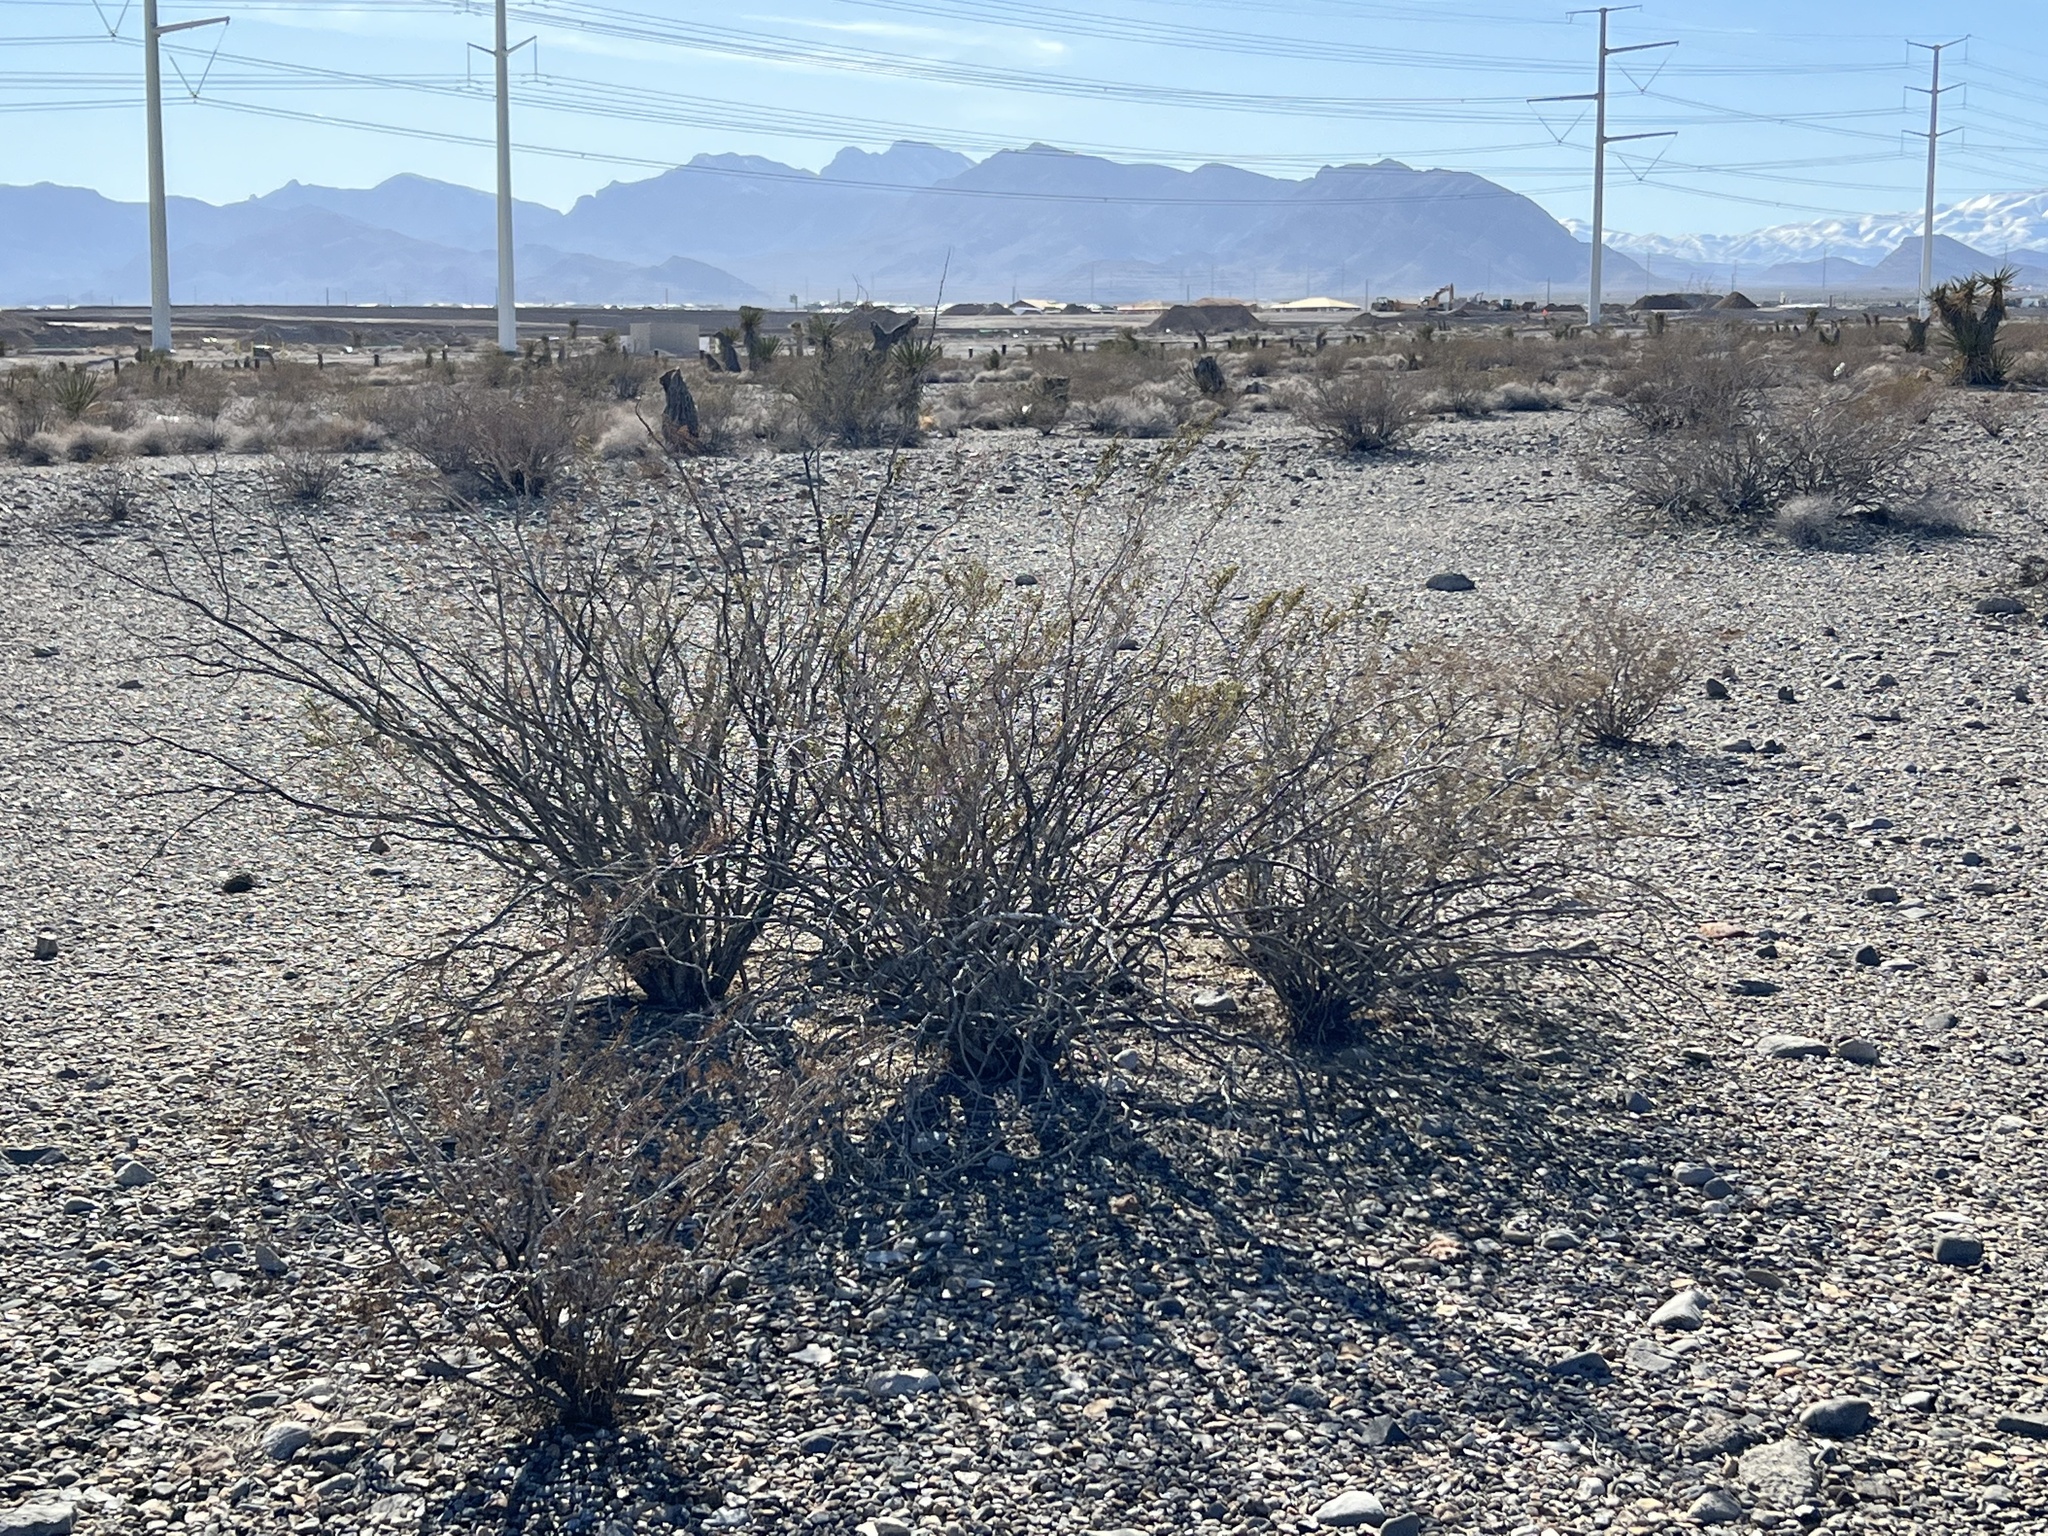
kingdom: Plantae
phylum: Tracheophyta
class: Magnoliopsida
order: Zygophyllales
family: Zygophyllaceae
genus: Larrea
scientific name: Larrea tridentata
